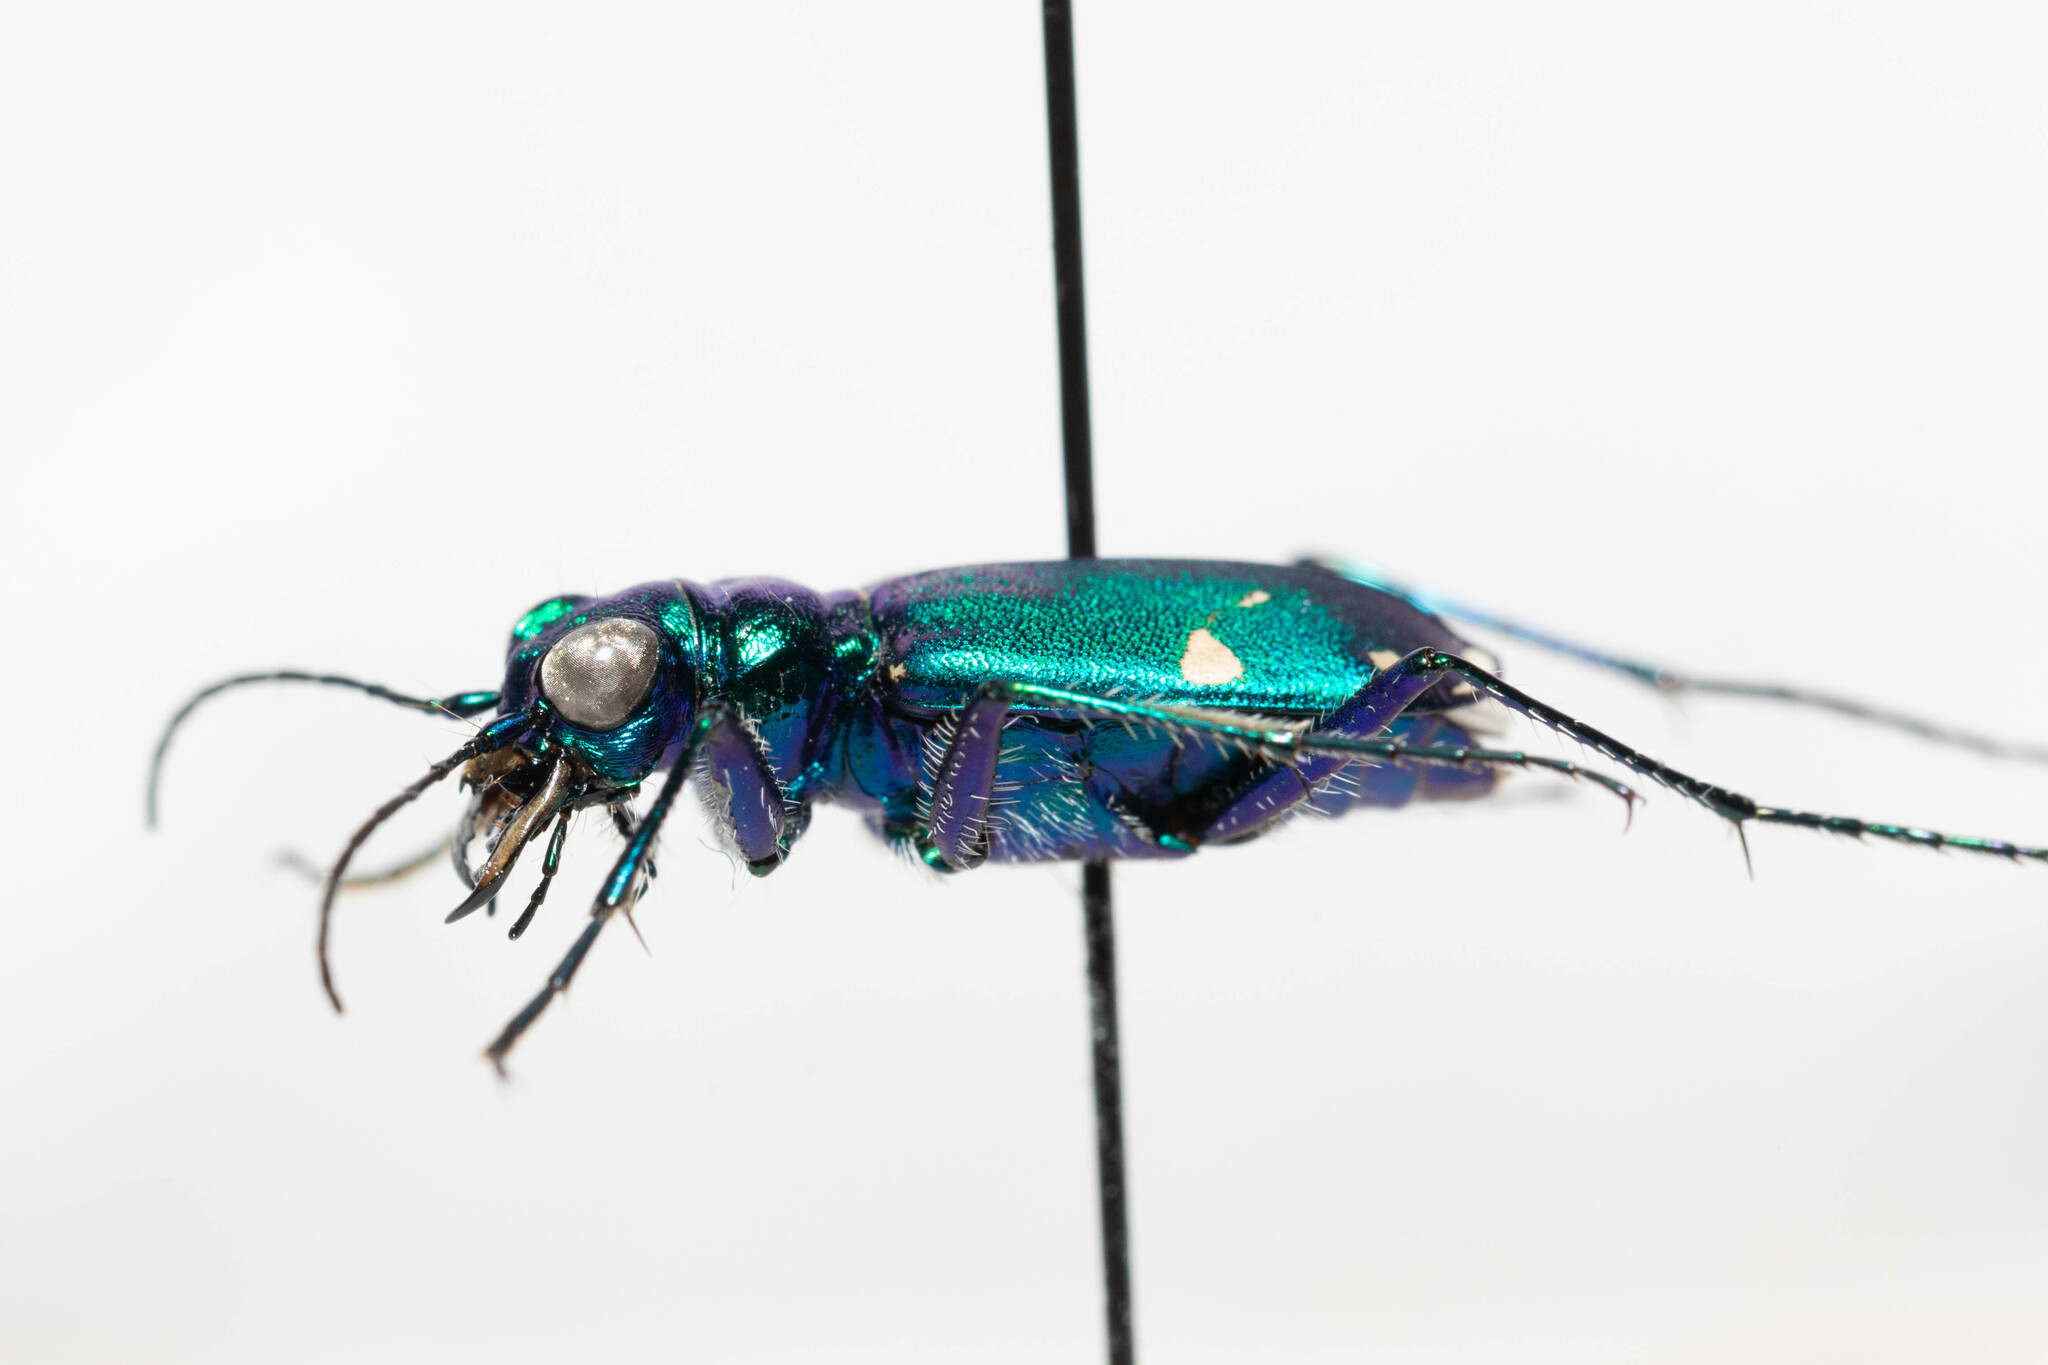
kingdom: Animalia
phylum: Arthropoda
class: Insecta
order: Coleoptera
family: Carabidae
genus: Cicindela
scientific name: Cicindela sexguttata
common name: Six-spotted tiger beetle
